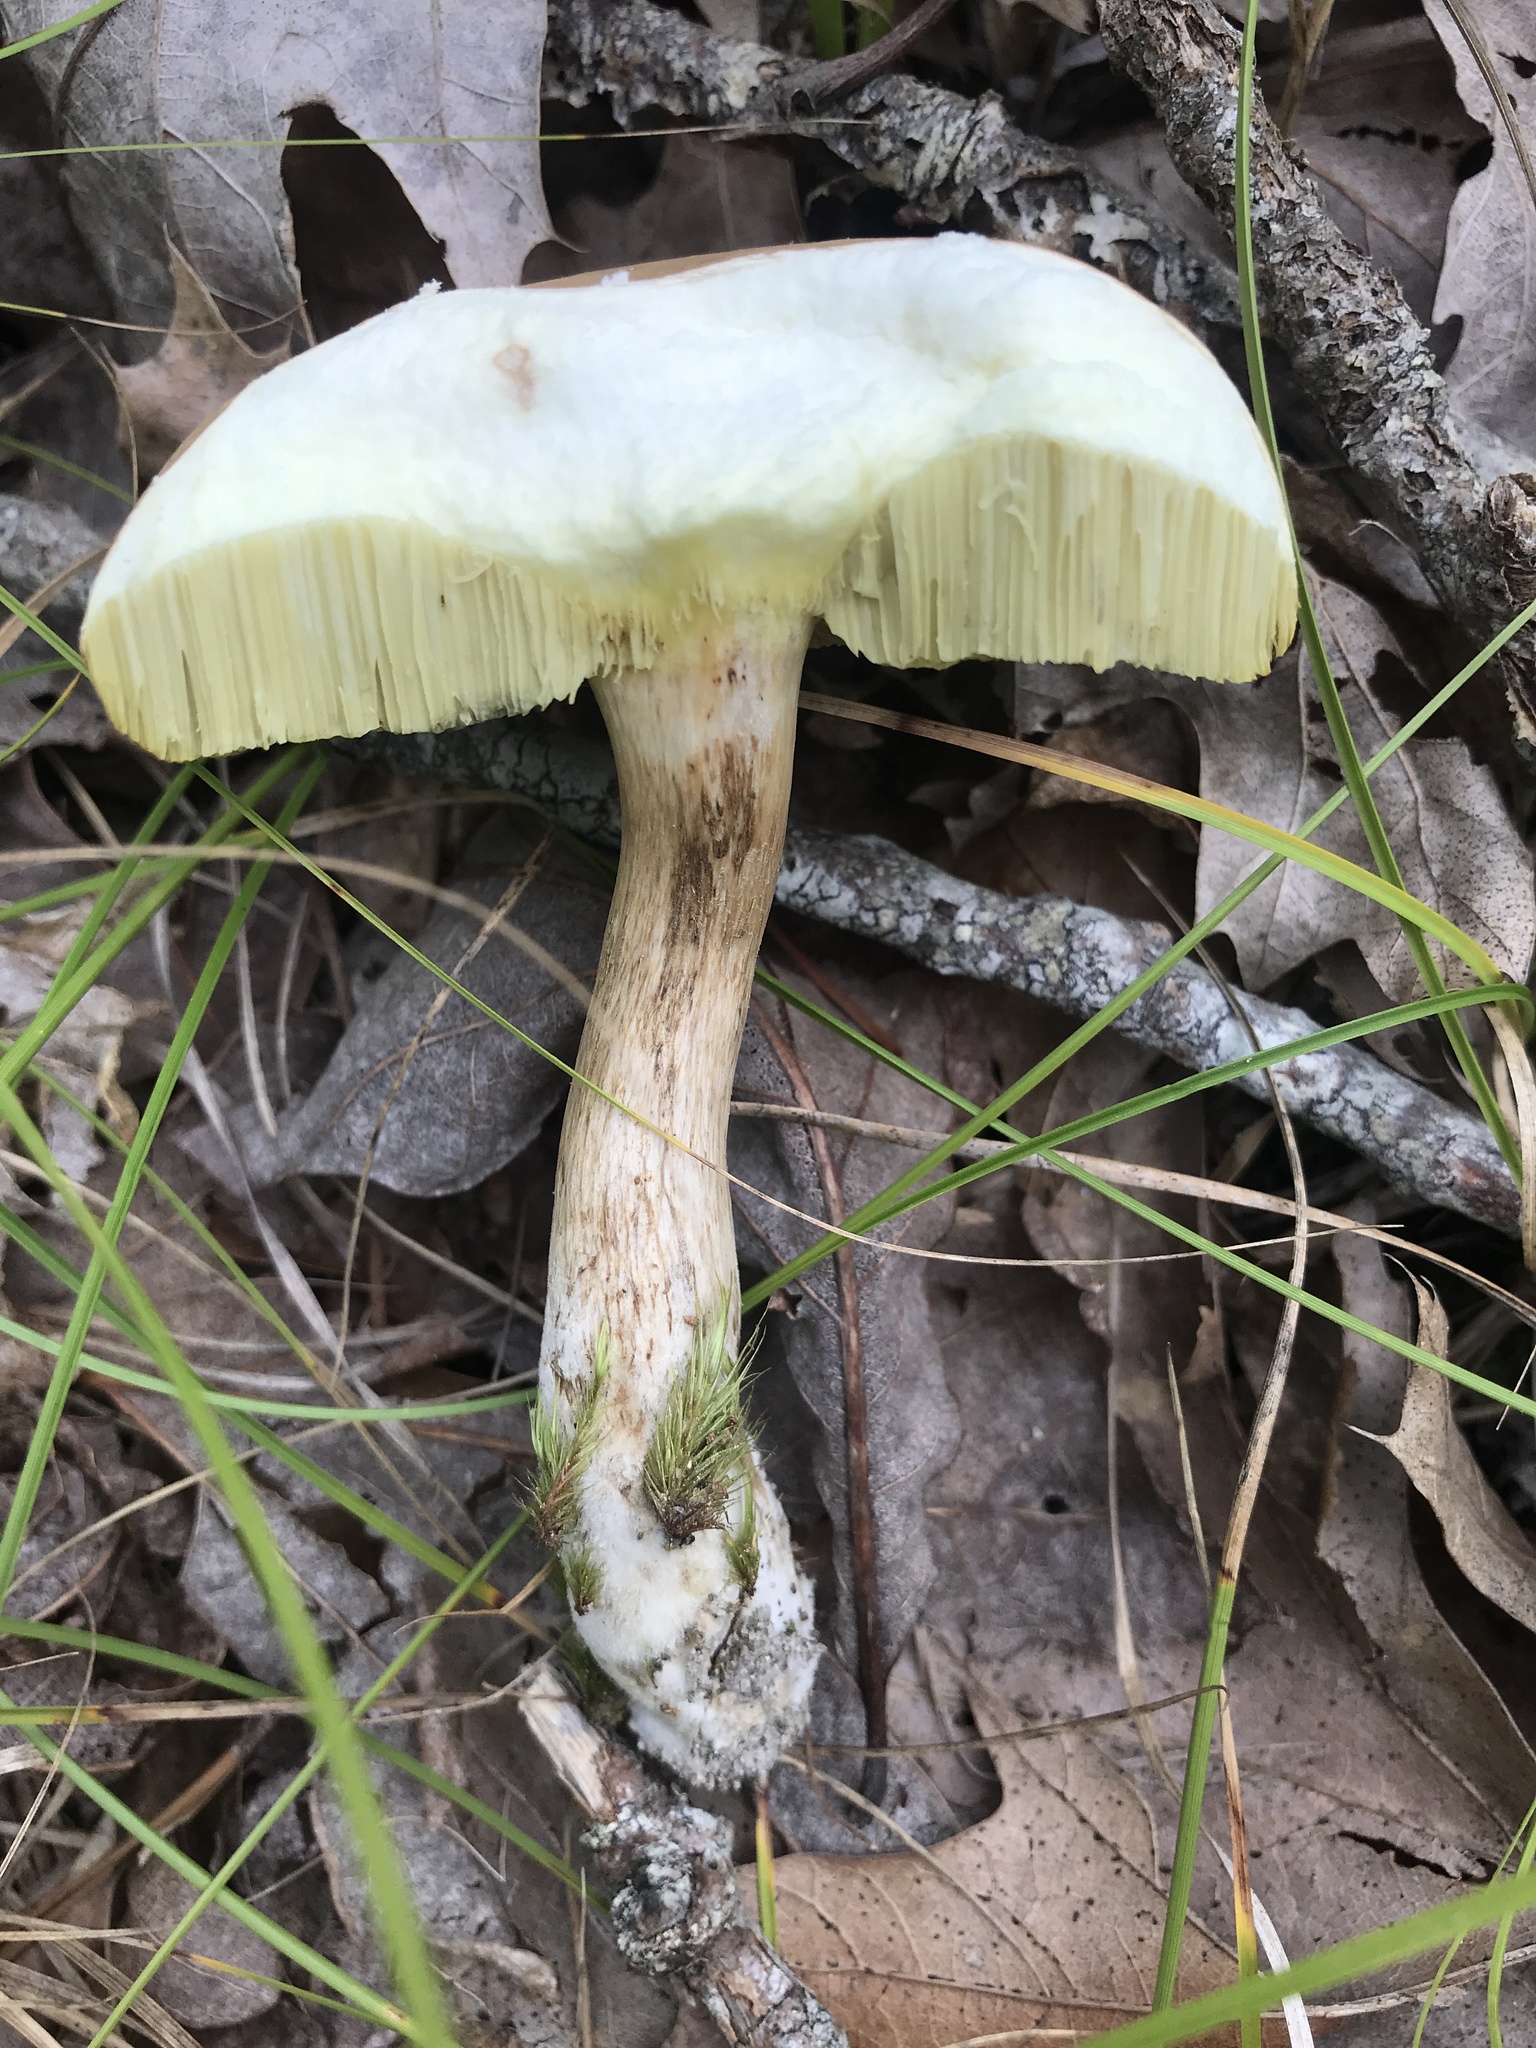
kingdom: Fungi
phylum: Basidiomycota
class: Agaricomycetes
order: Boletales
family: Boletaceae
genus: Imleria
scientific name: Imleria pallida
